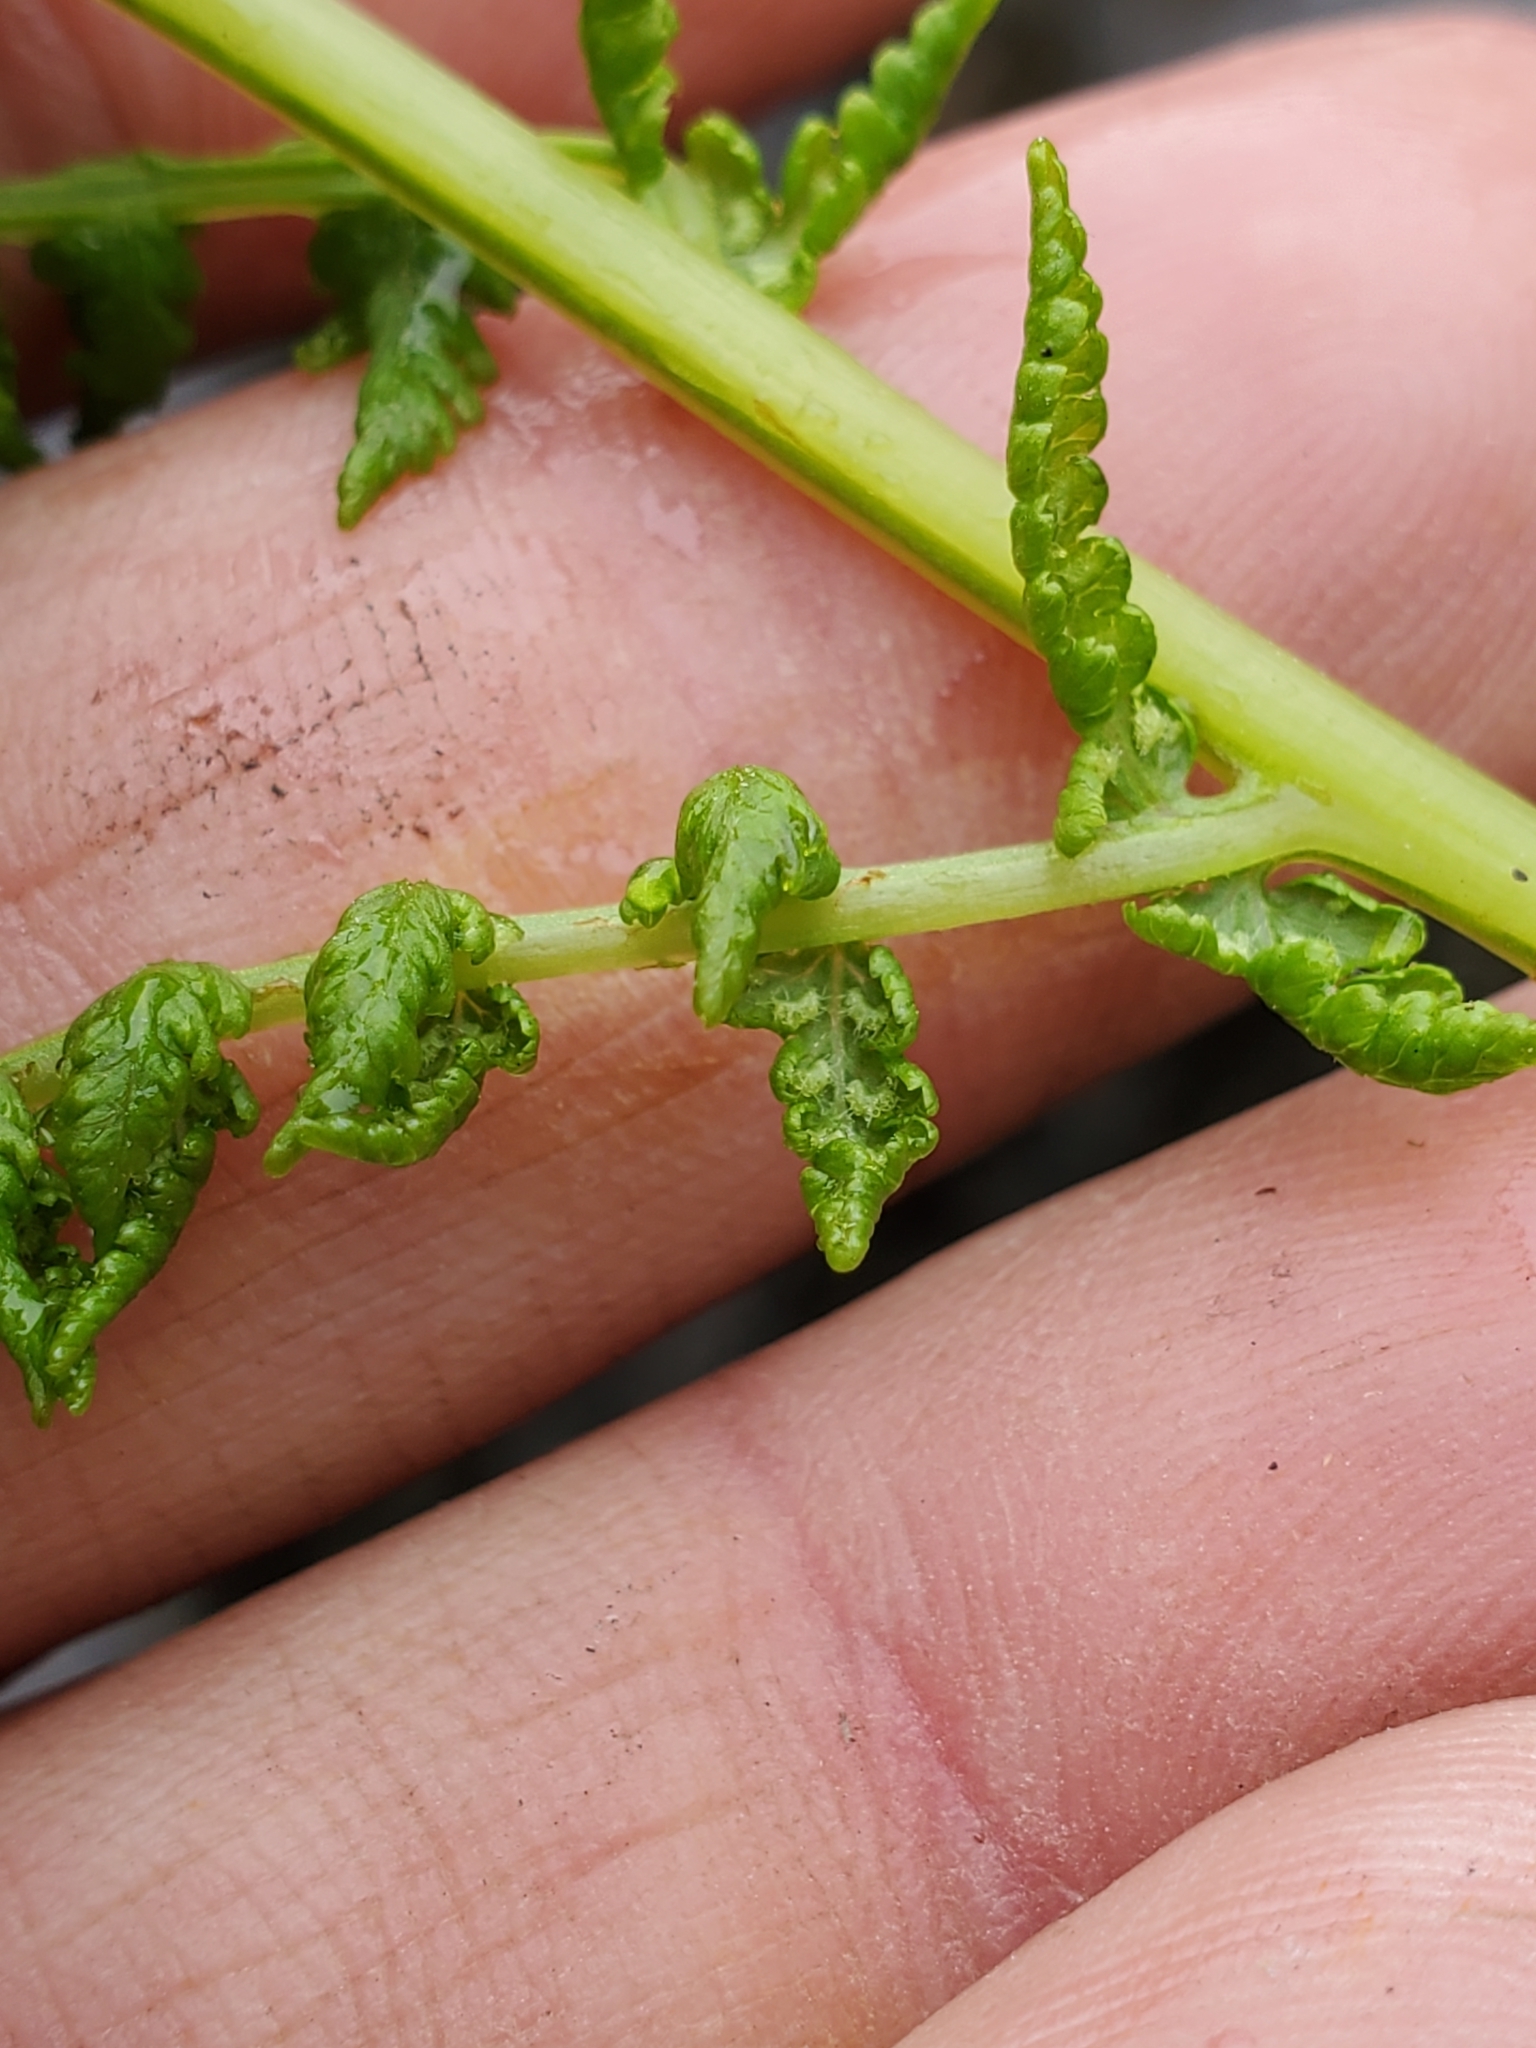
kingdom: Plantae
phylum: Tracheophyta
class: Polypodiopsida
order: Polypodiales
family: Athyriaceae
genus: Athyrium
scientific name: Athyrium filix-femina
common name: Lady fern
